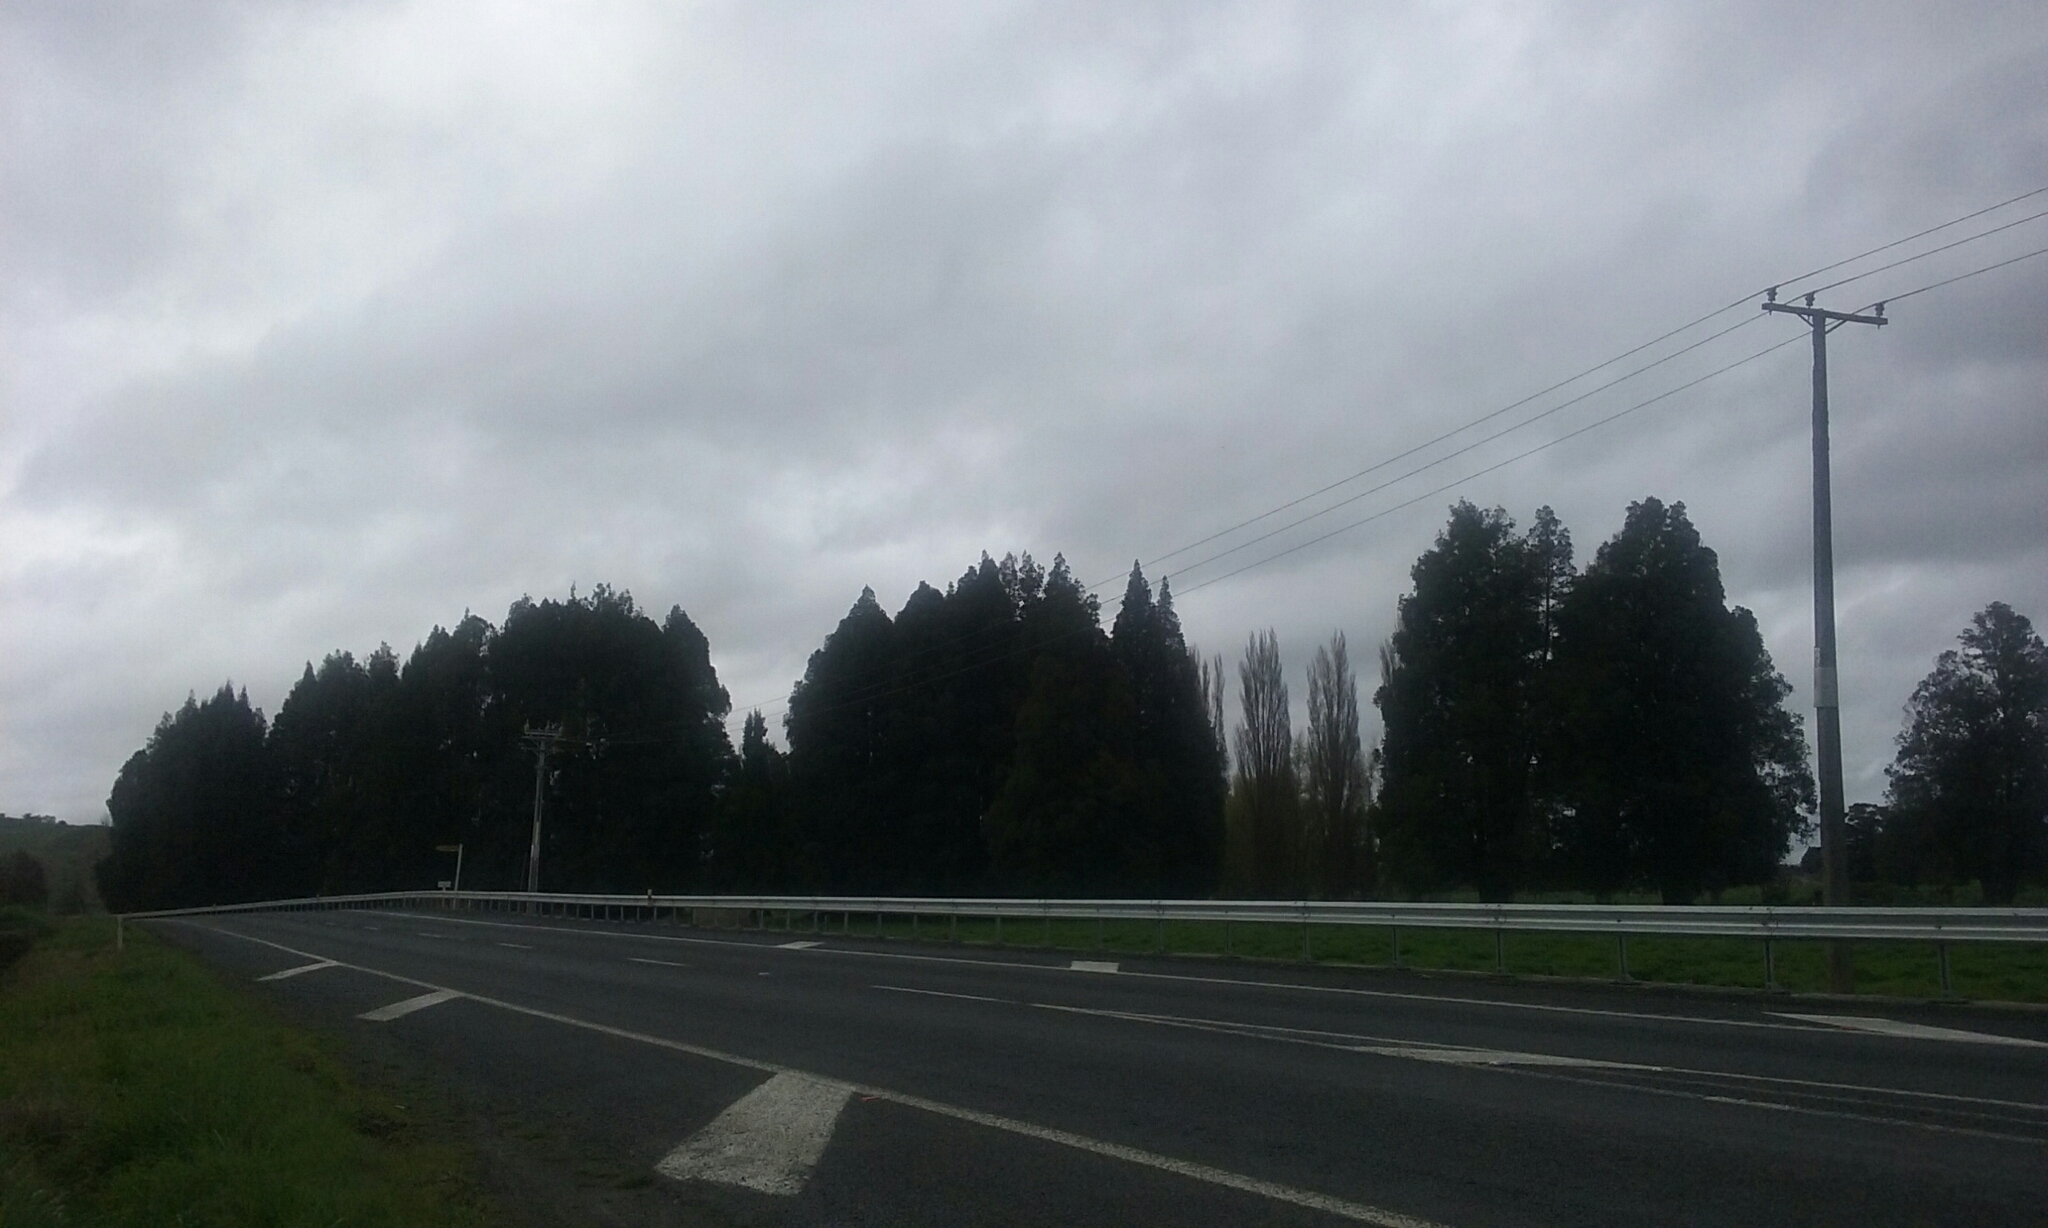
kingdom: Plantae
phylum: Tracheophyta
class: Pinopsida
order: Pinales
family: Podocarpaceae
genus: Dacrycarpus
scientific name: Dacrycarpus dacrydioides
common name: White pine
